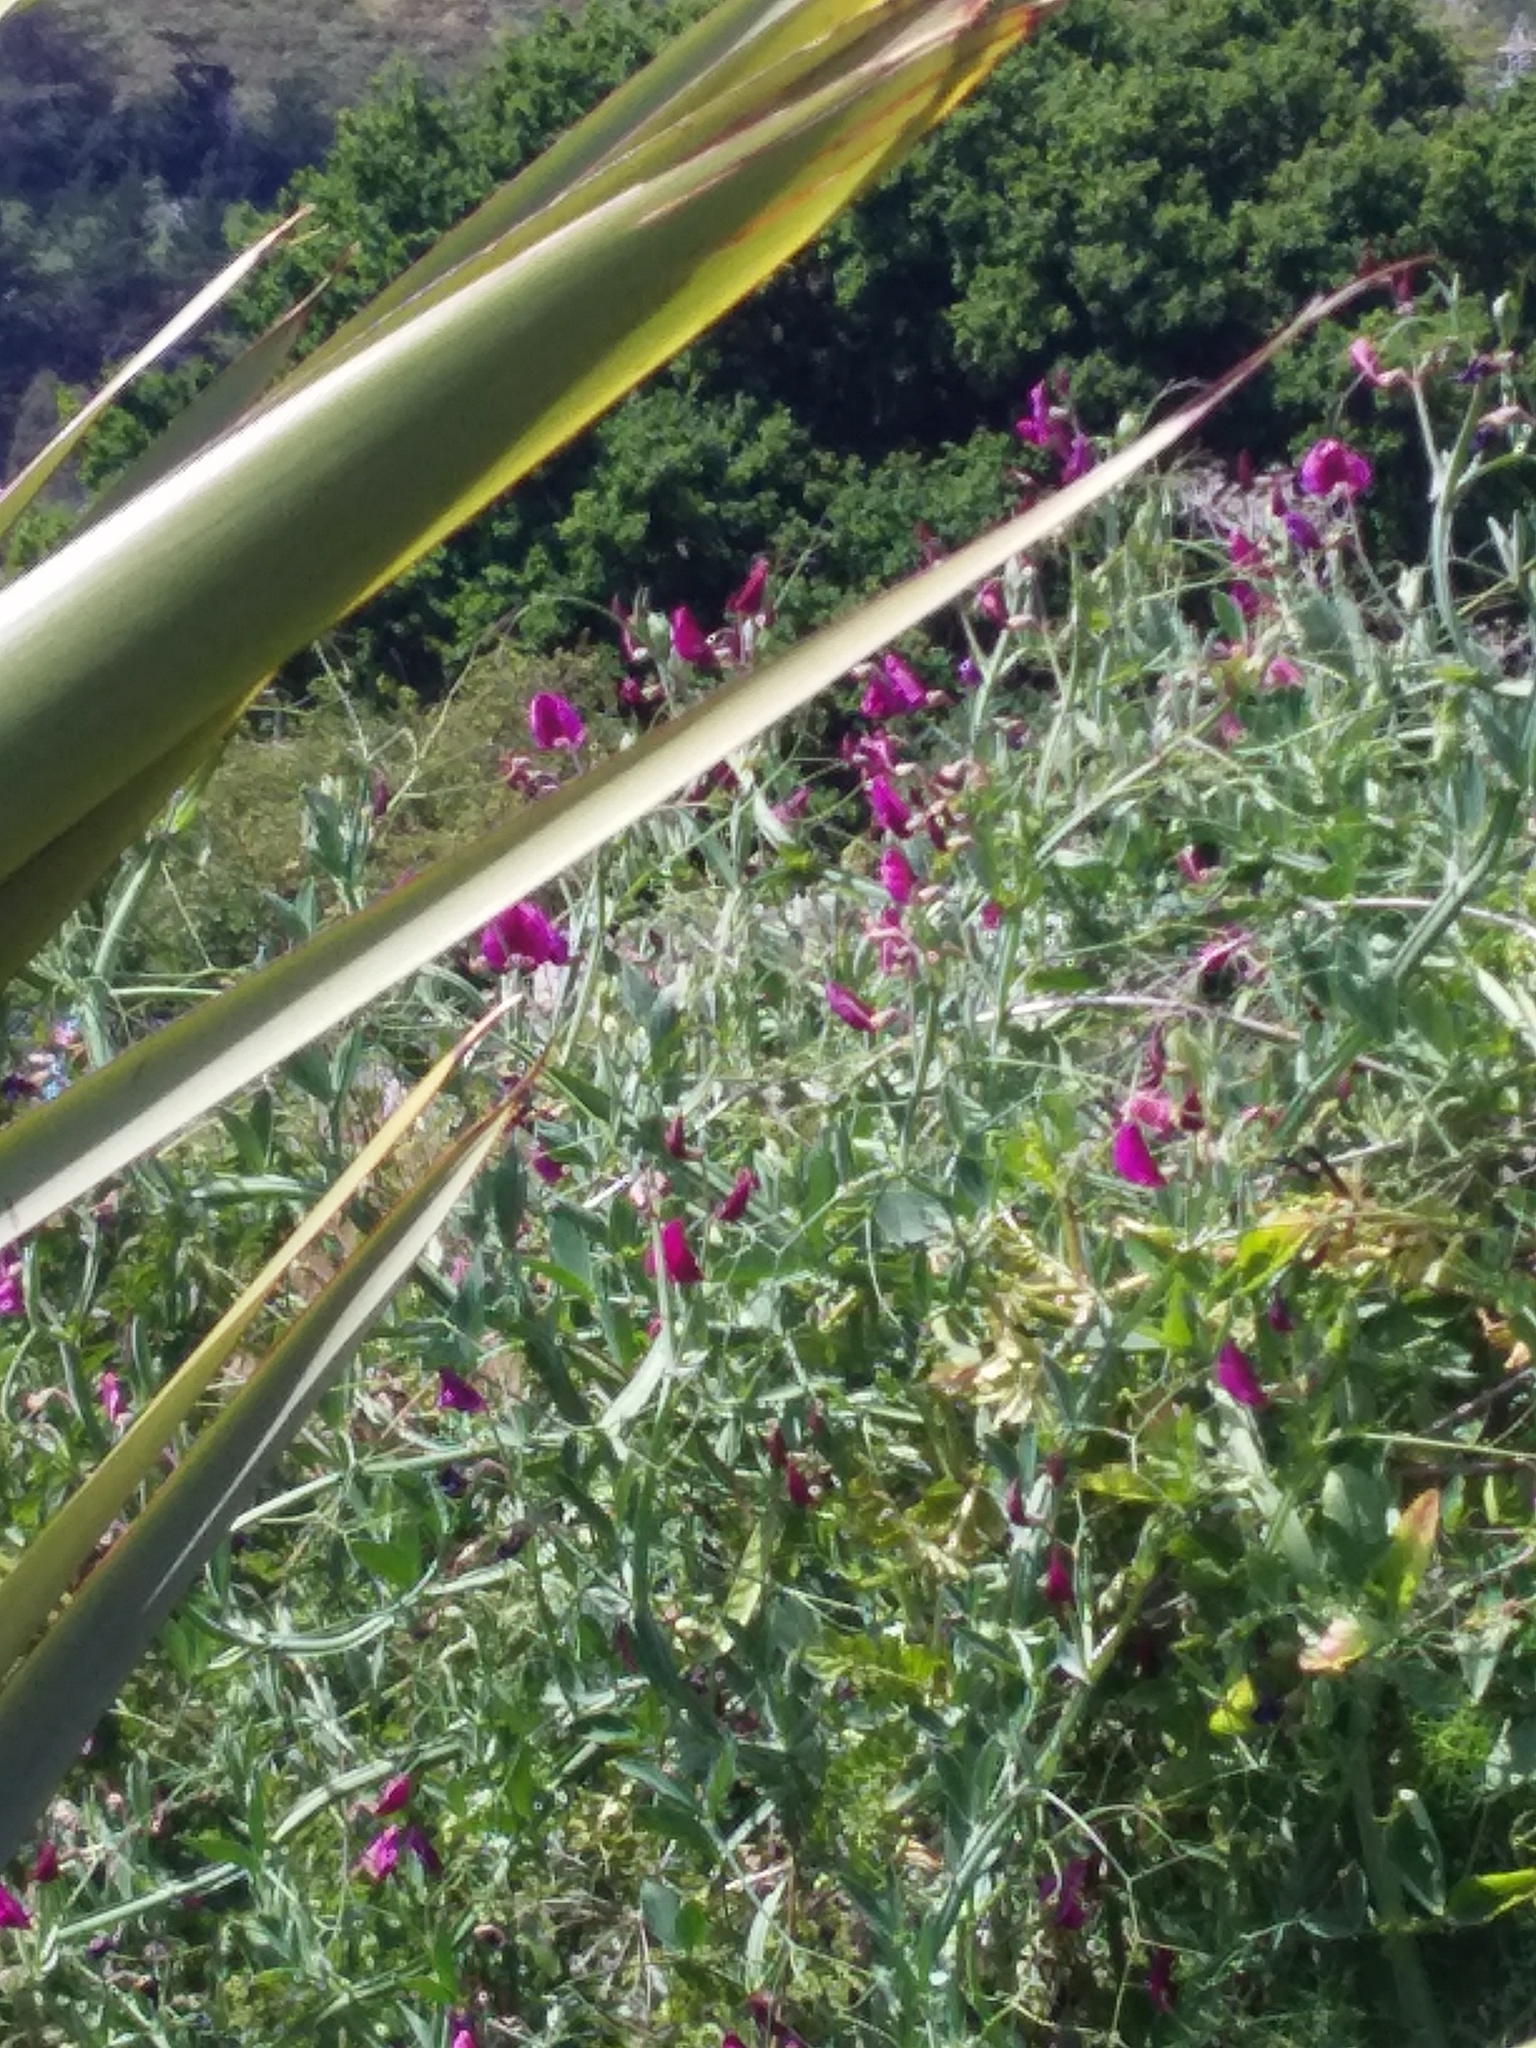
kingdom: Plantae
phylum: Tracheophyta
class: Magnoliopsida
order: Fabales
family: Fabaceae
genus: Lathyrus
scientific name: Lathyrus latifolius
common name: Perennial pea
